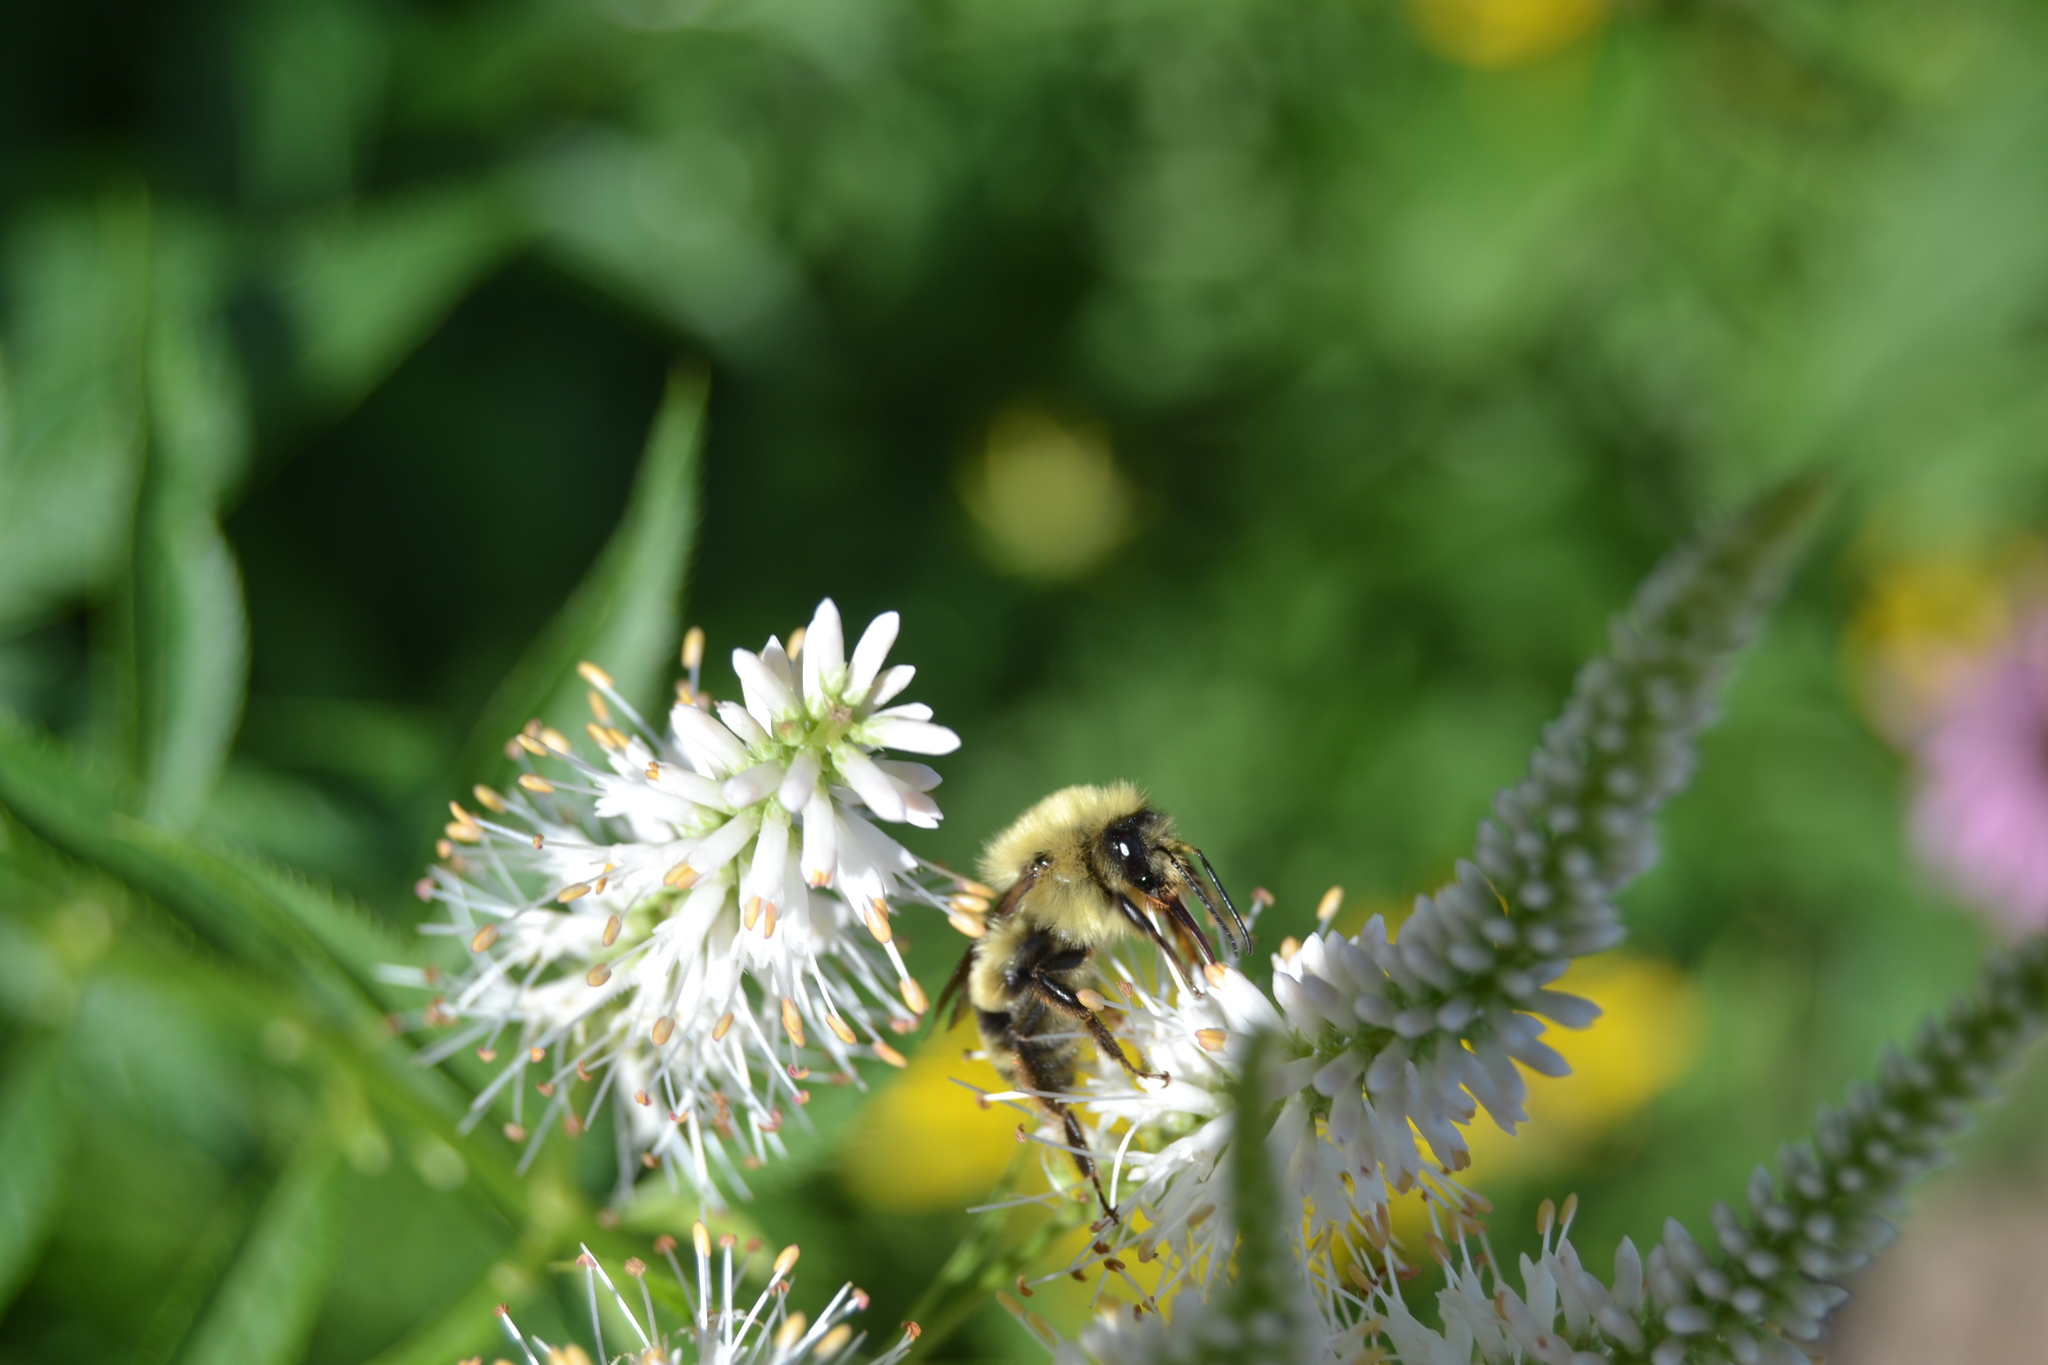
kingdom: Animalia
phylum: Arthropoda
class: Insecta
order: Hymenoptera
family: Apidae
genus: Bombus
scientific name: Bombus bimaculatus
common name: Two-spotted bumble bee
